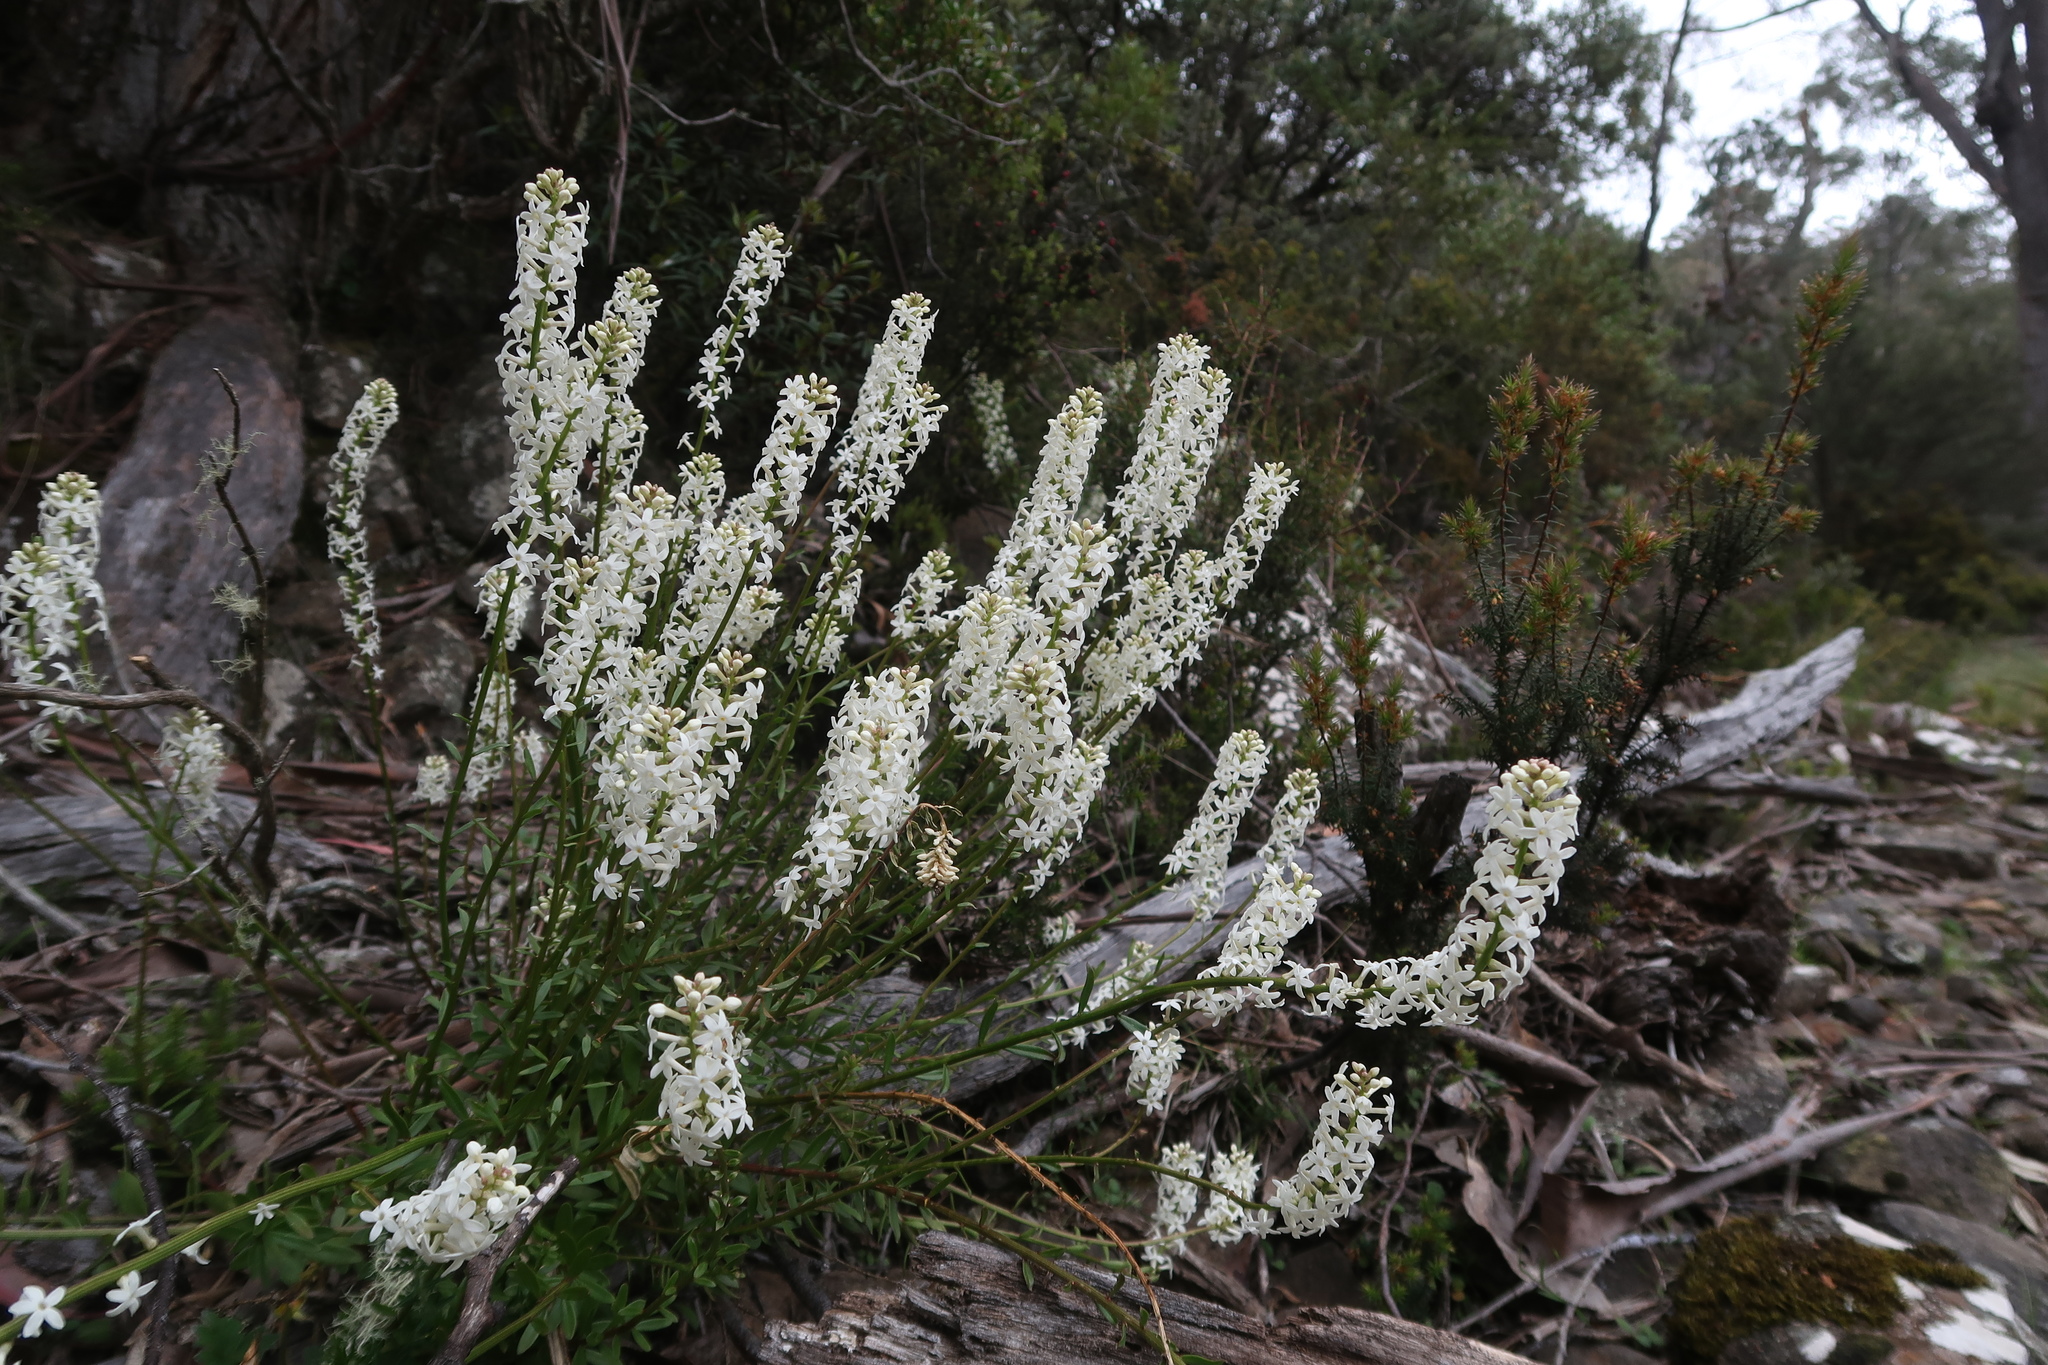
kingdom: Plantae
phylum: Tracheophyta
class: Magnoliopsida
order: Celastrales
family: Celastraceae
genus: Stackhousia
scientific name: Stackhousia monogyna
